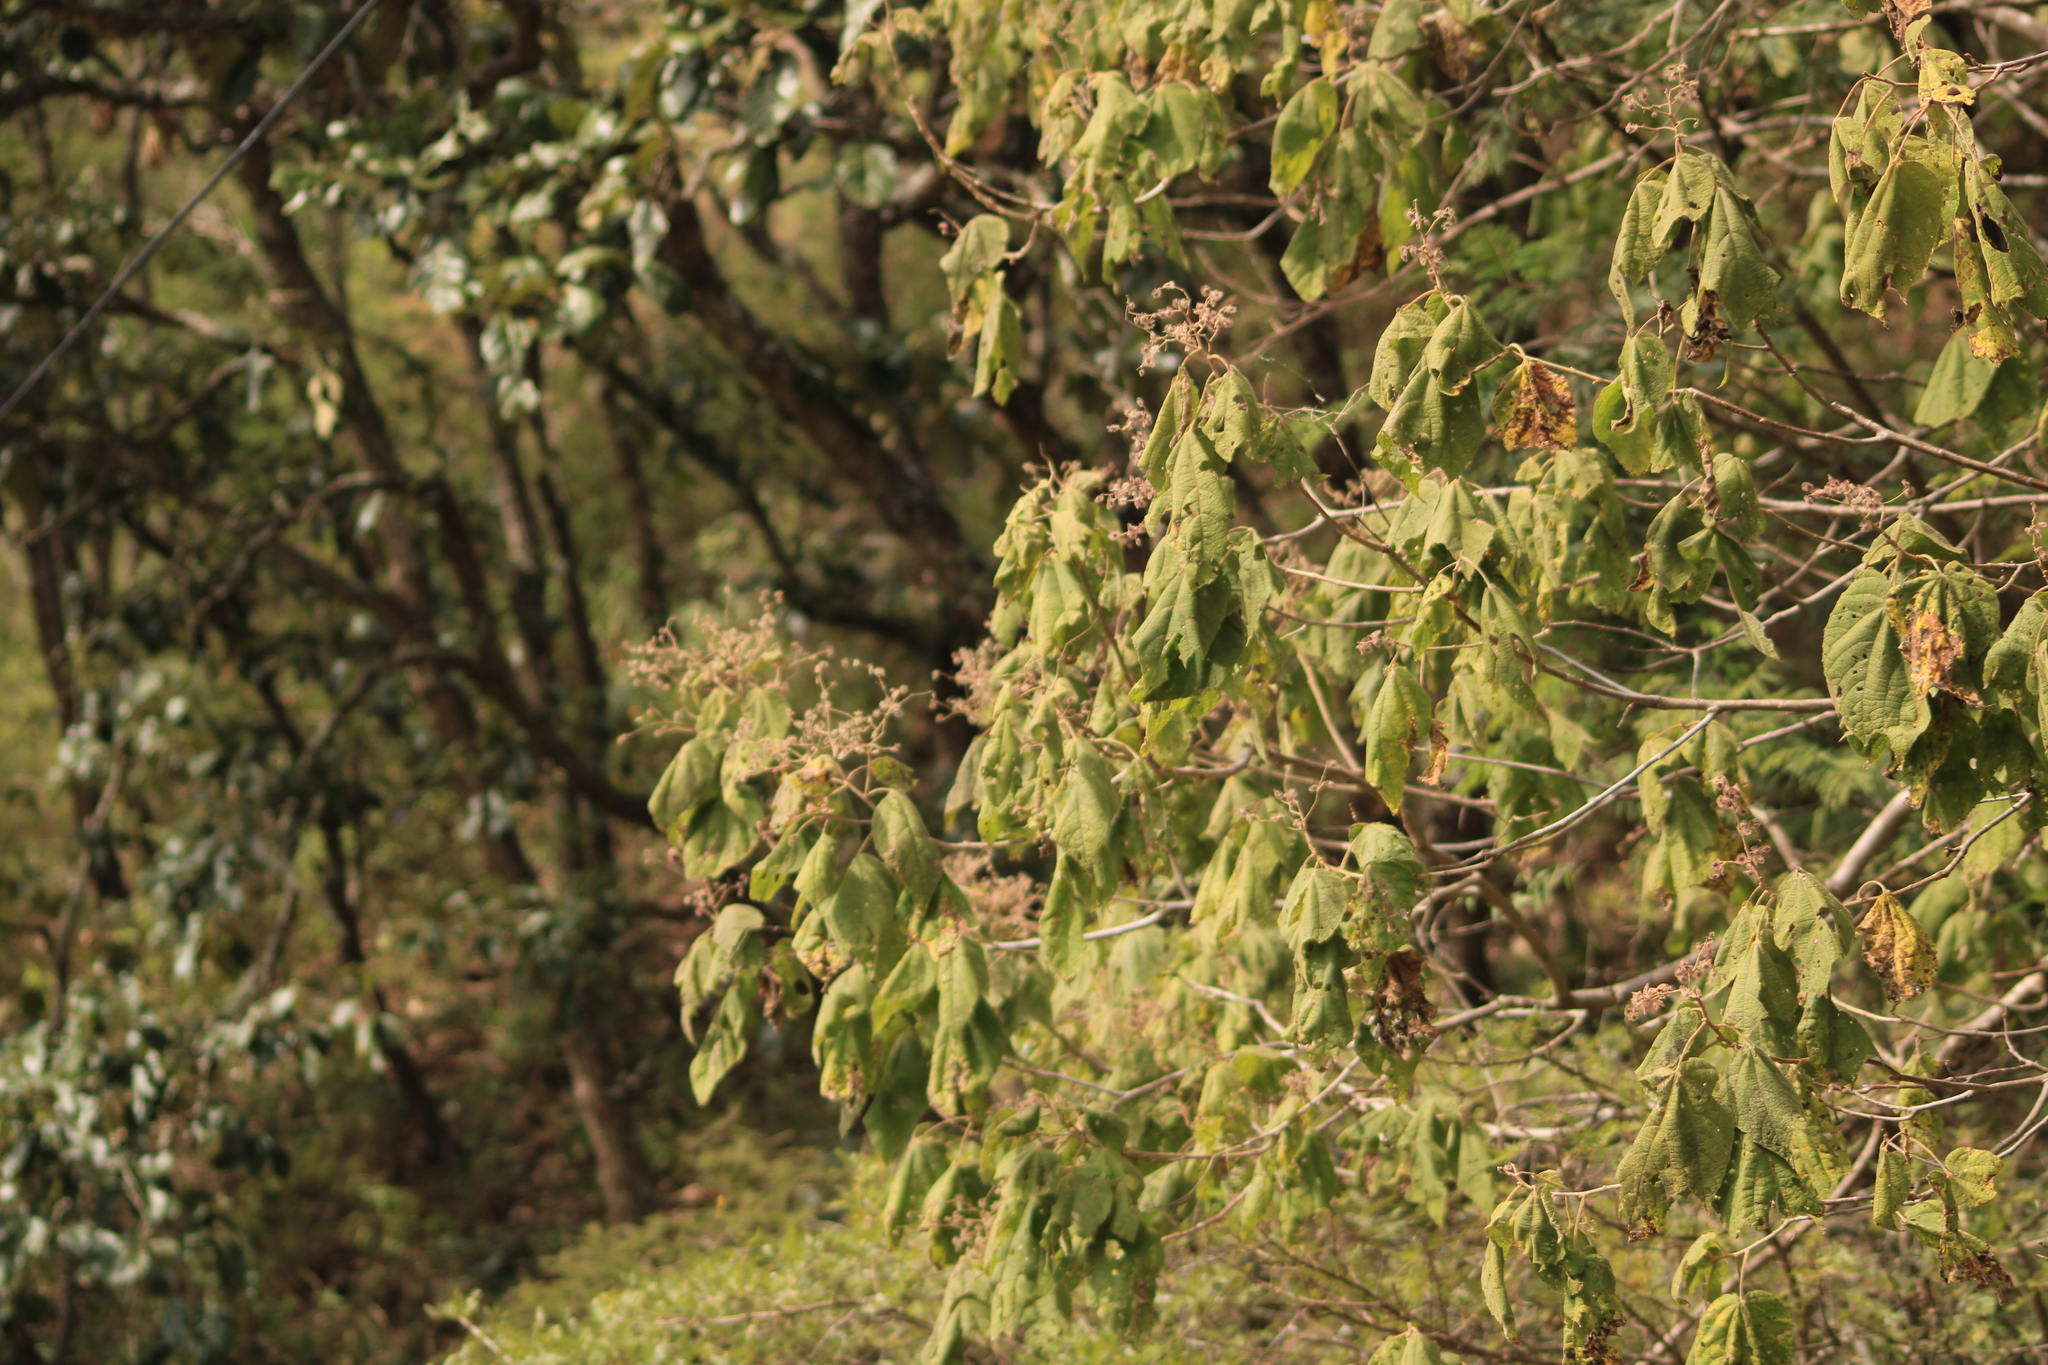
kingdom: Plantae
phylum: Tracheophyta
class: Magnoliopsida
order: Malvales
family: Malvaceae
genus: Heliocarpus
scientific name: Heliocarpus terebinthinaceus
